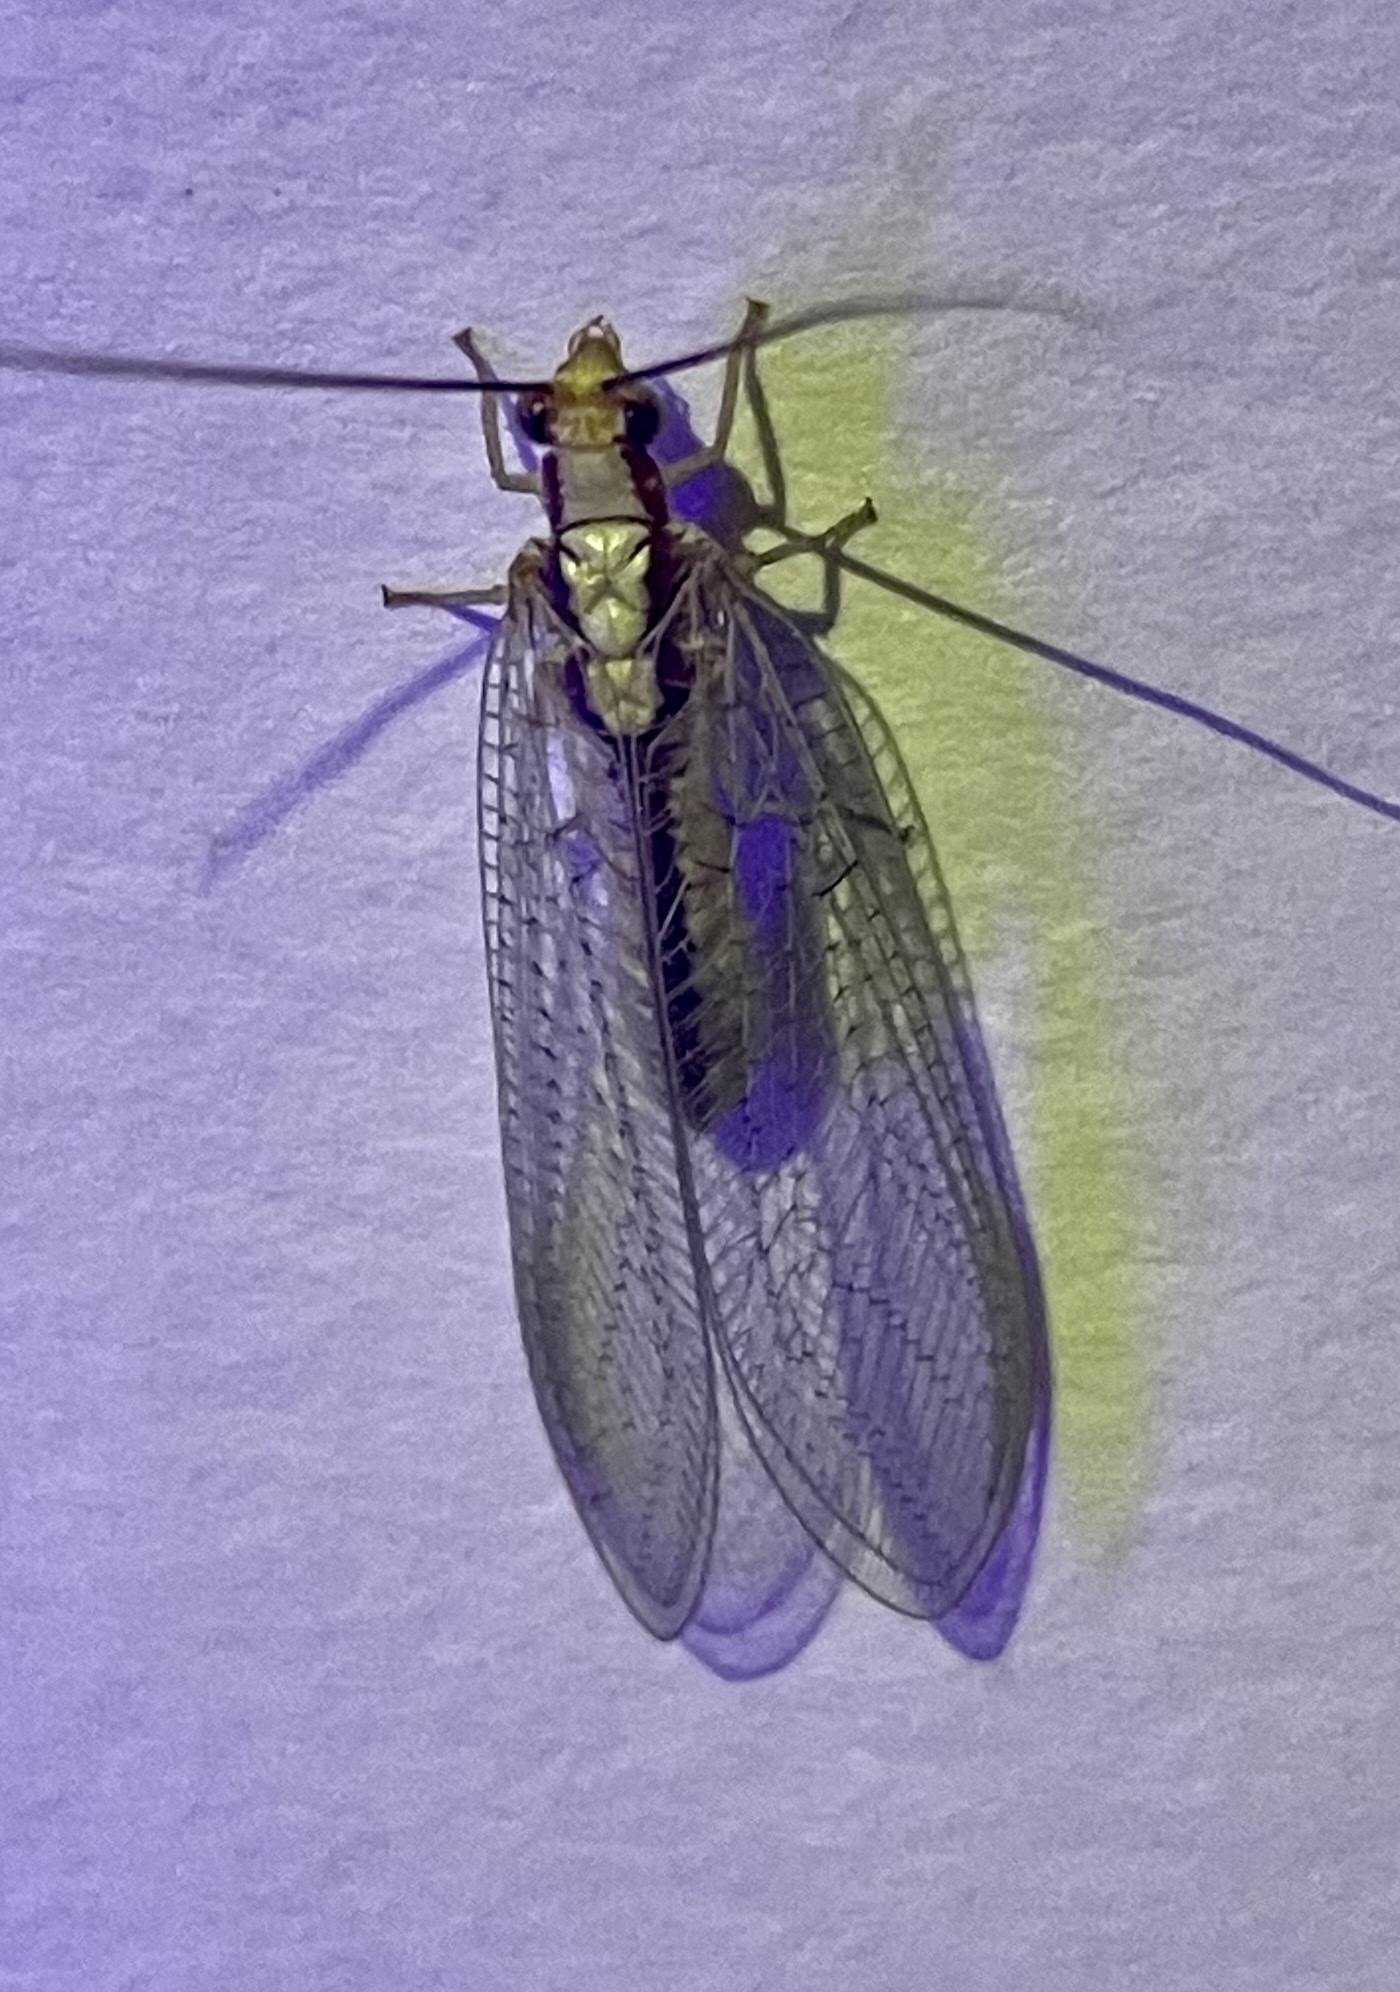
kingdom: Animalia
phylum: Arthropoda
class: Insecta
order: Neuroptera
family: Chrysopidae
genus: Italochrysa
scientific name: Italochrysa italica
